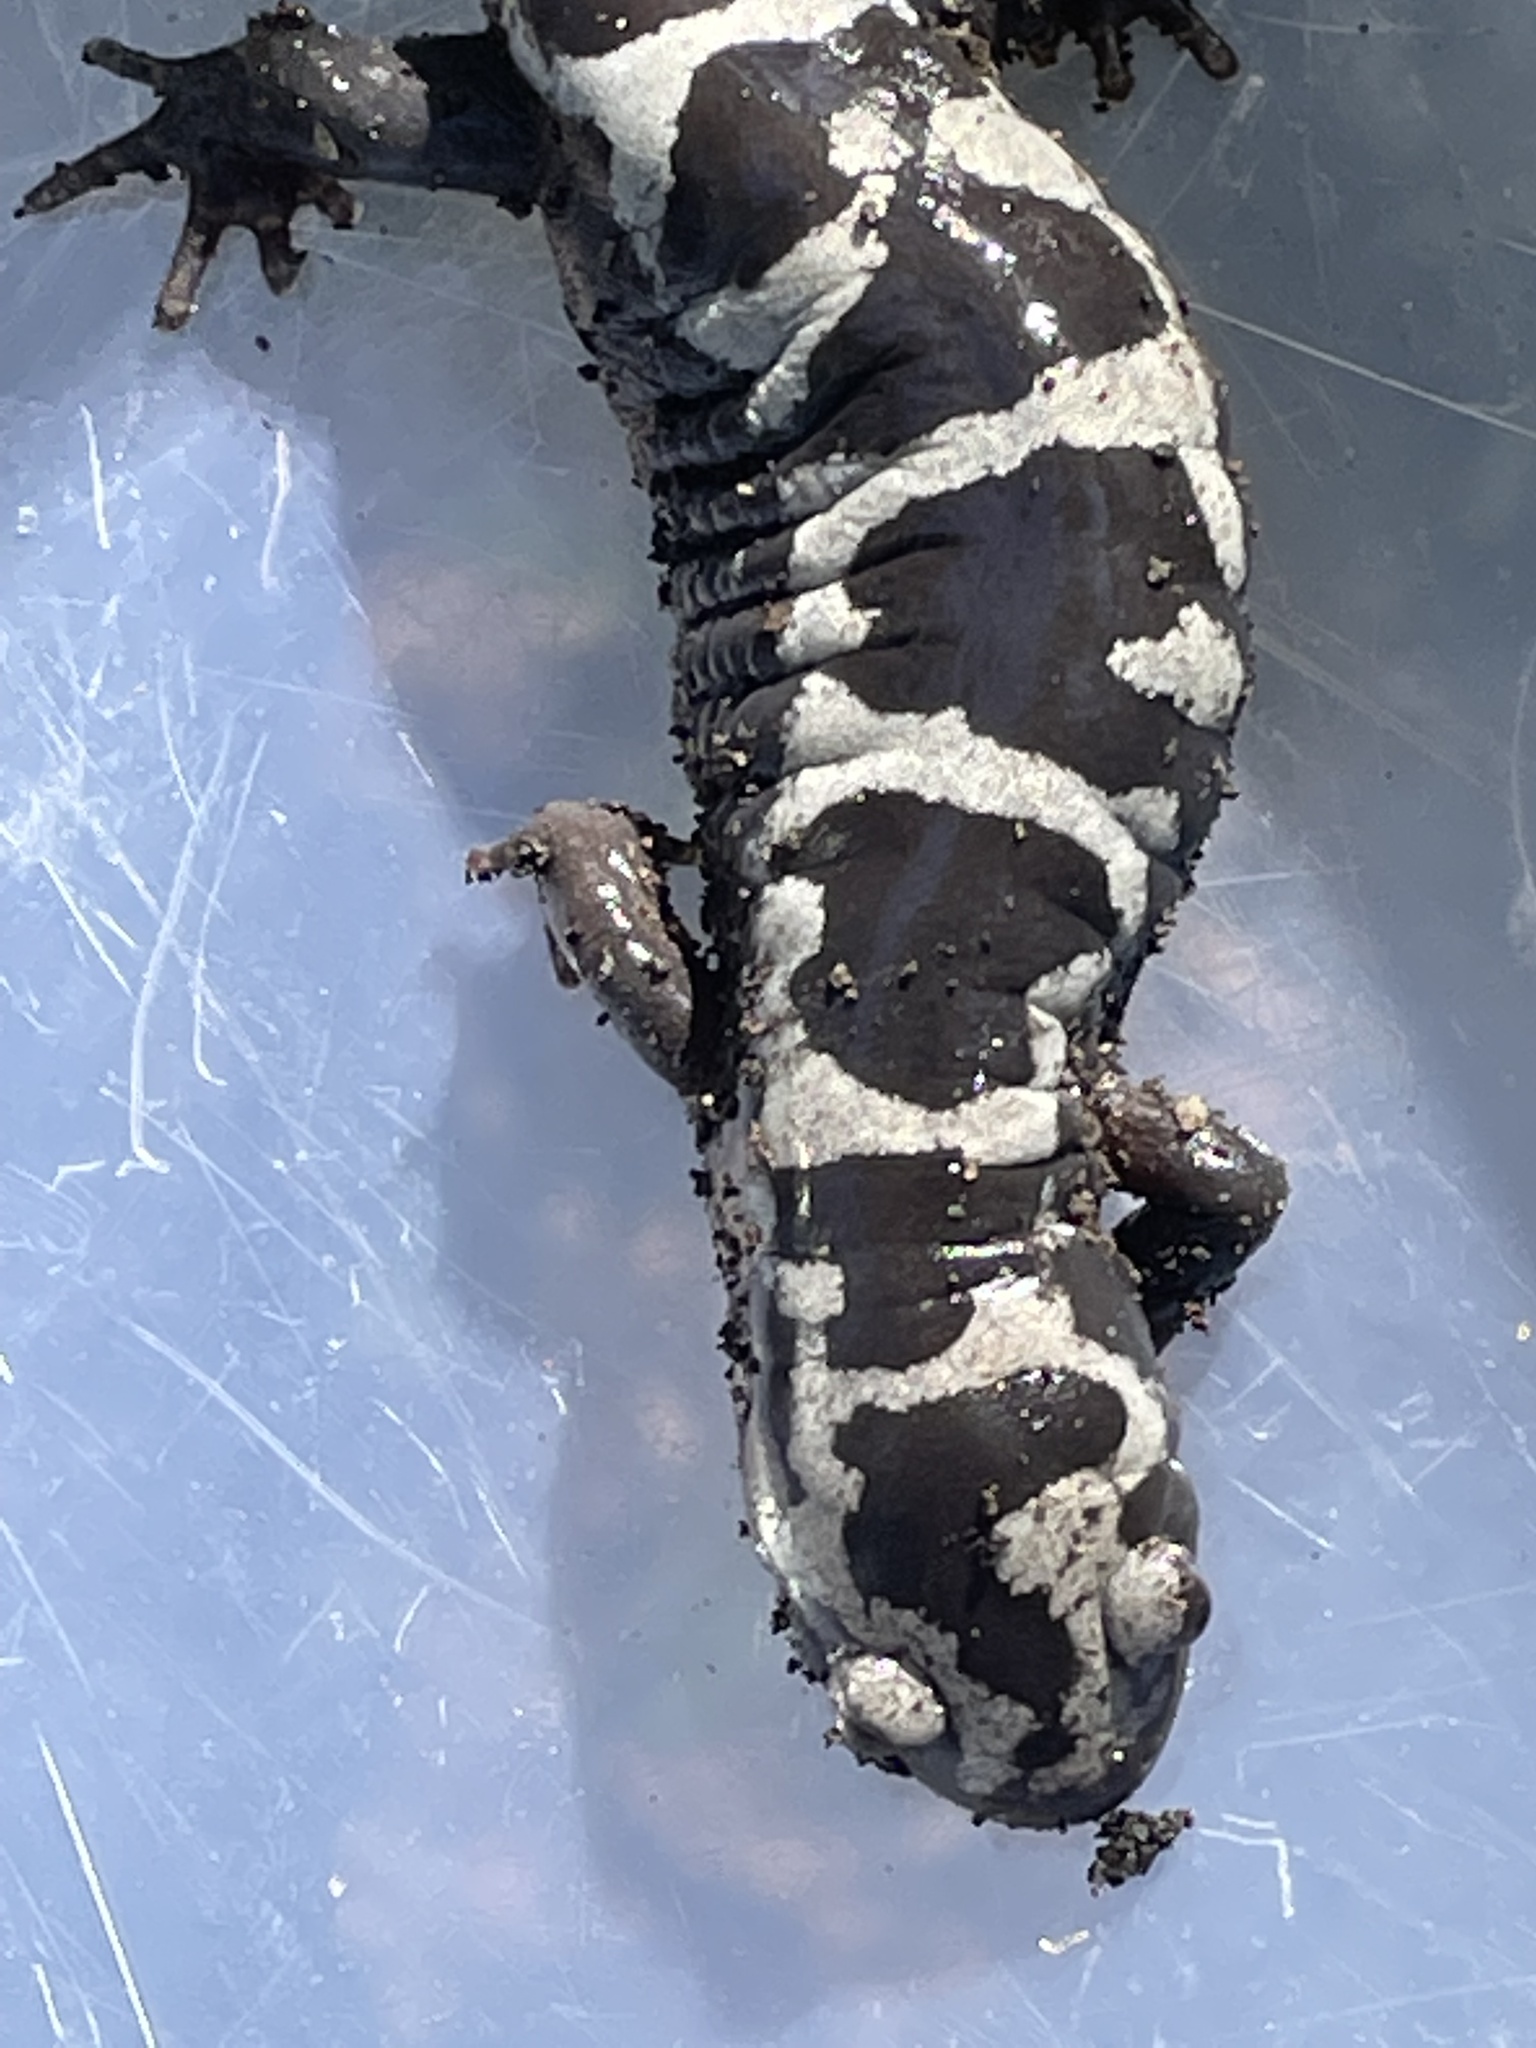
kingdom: Animalia
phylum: Chordata
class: Amphibia
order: Caudata
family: Ambystomatidae
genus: Ambystoma
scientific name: Ambystoma opacum
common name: Marbled salamander
